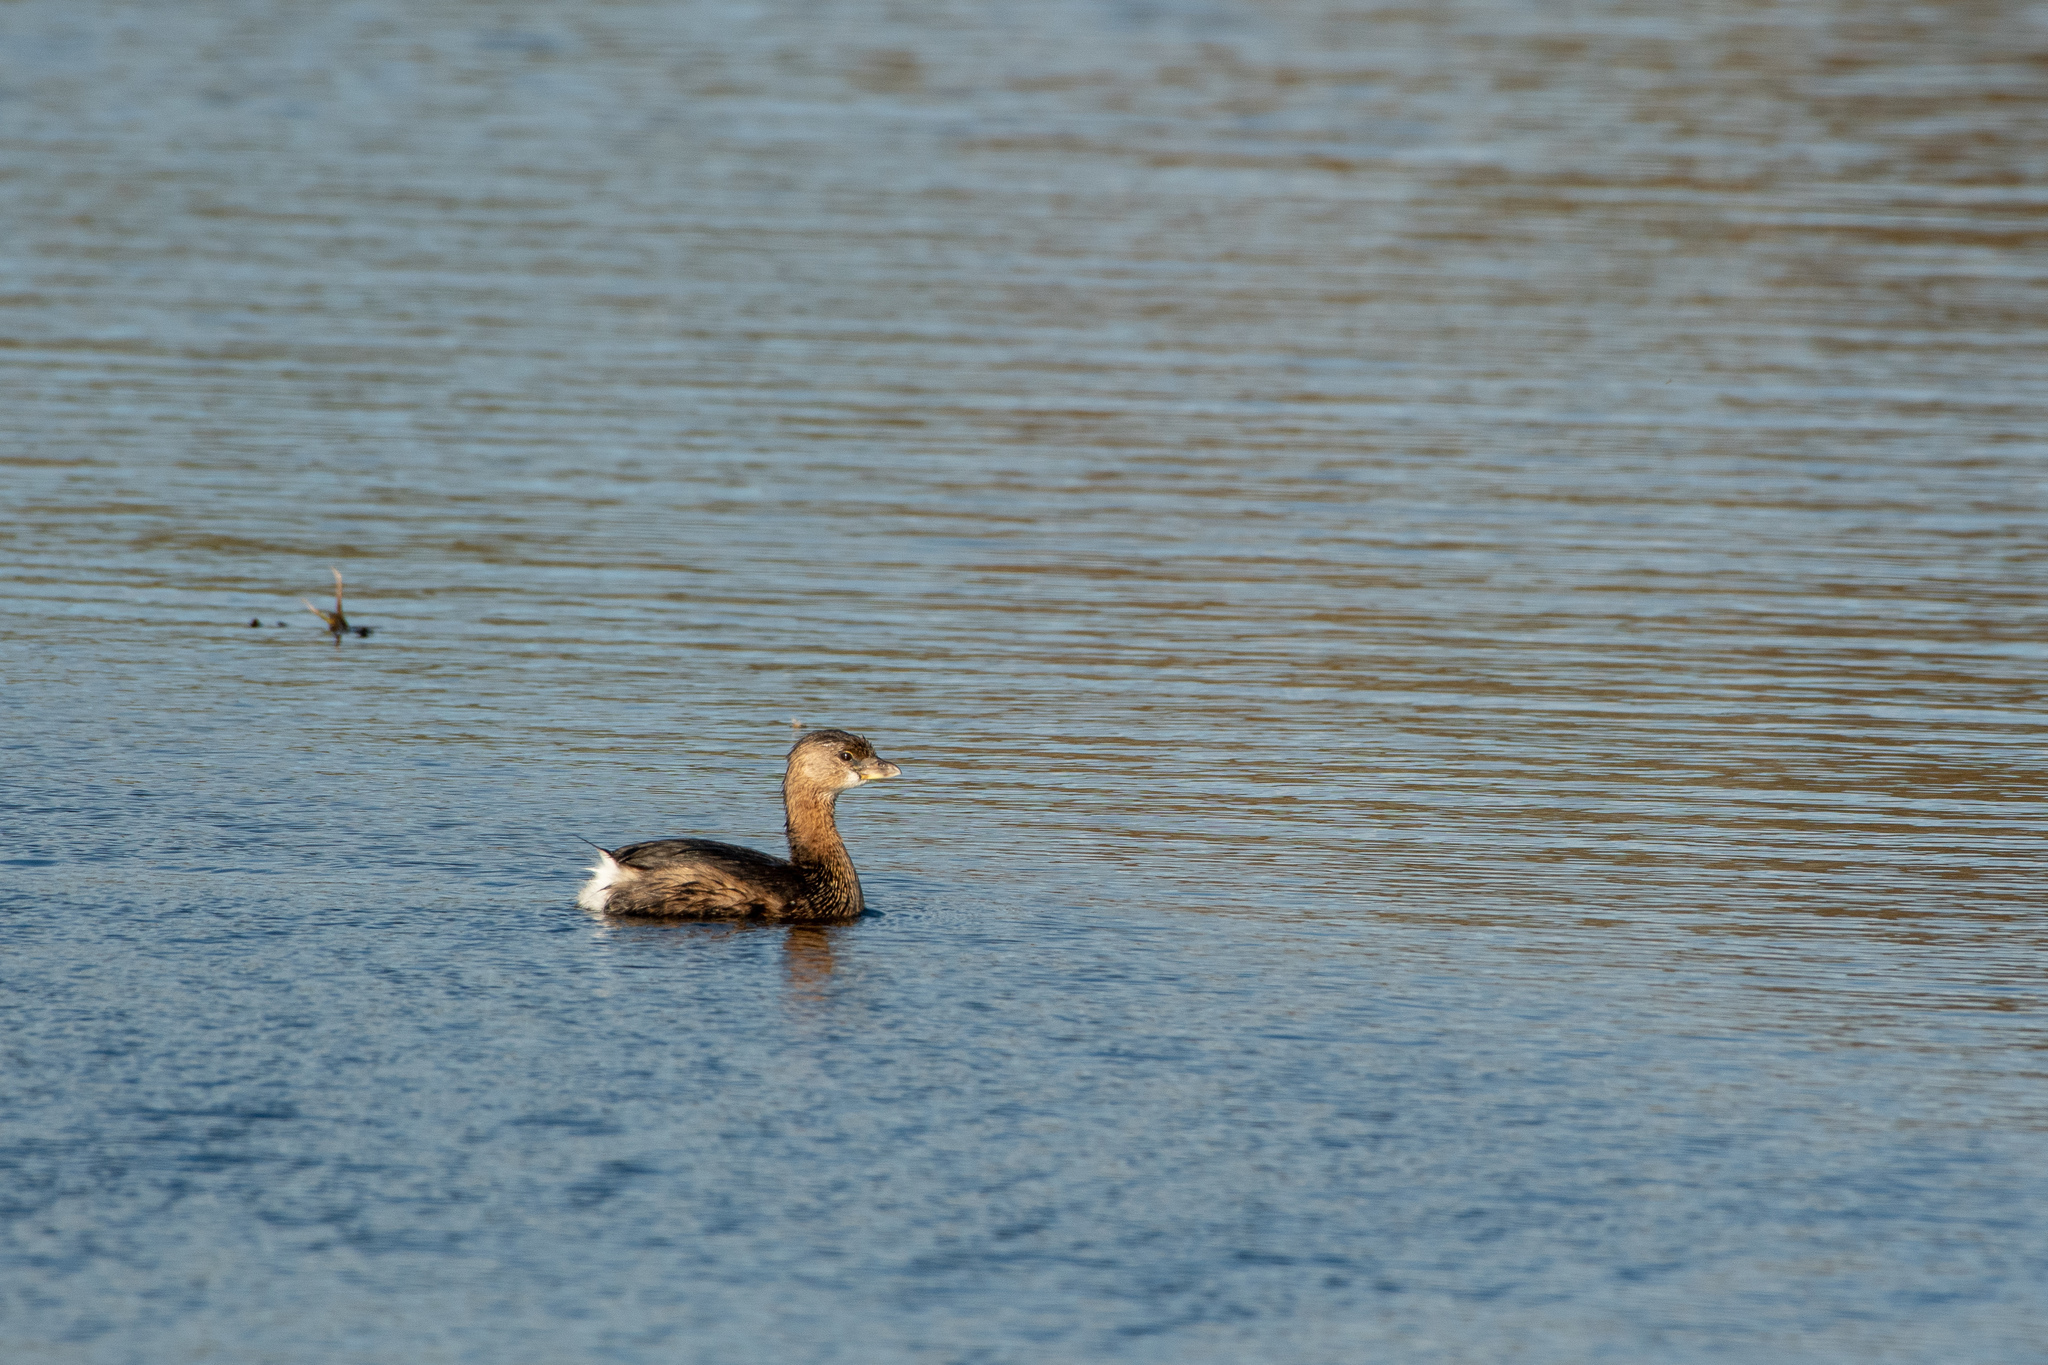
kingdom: Animalia
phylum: Chordata
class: Aves
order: Podicipediformes
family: Podicipedidae
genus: Podilymbus
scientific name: Podilymbus podiceps
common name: Pied-billed grebe
